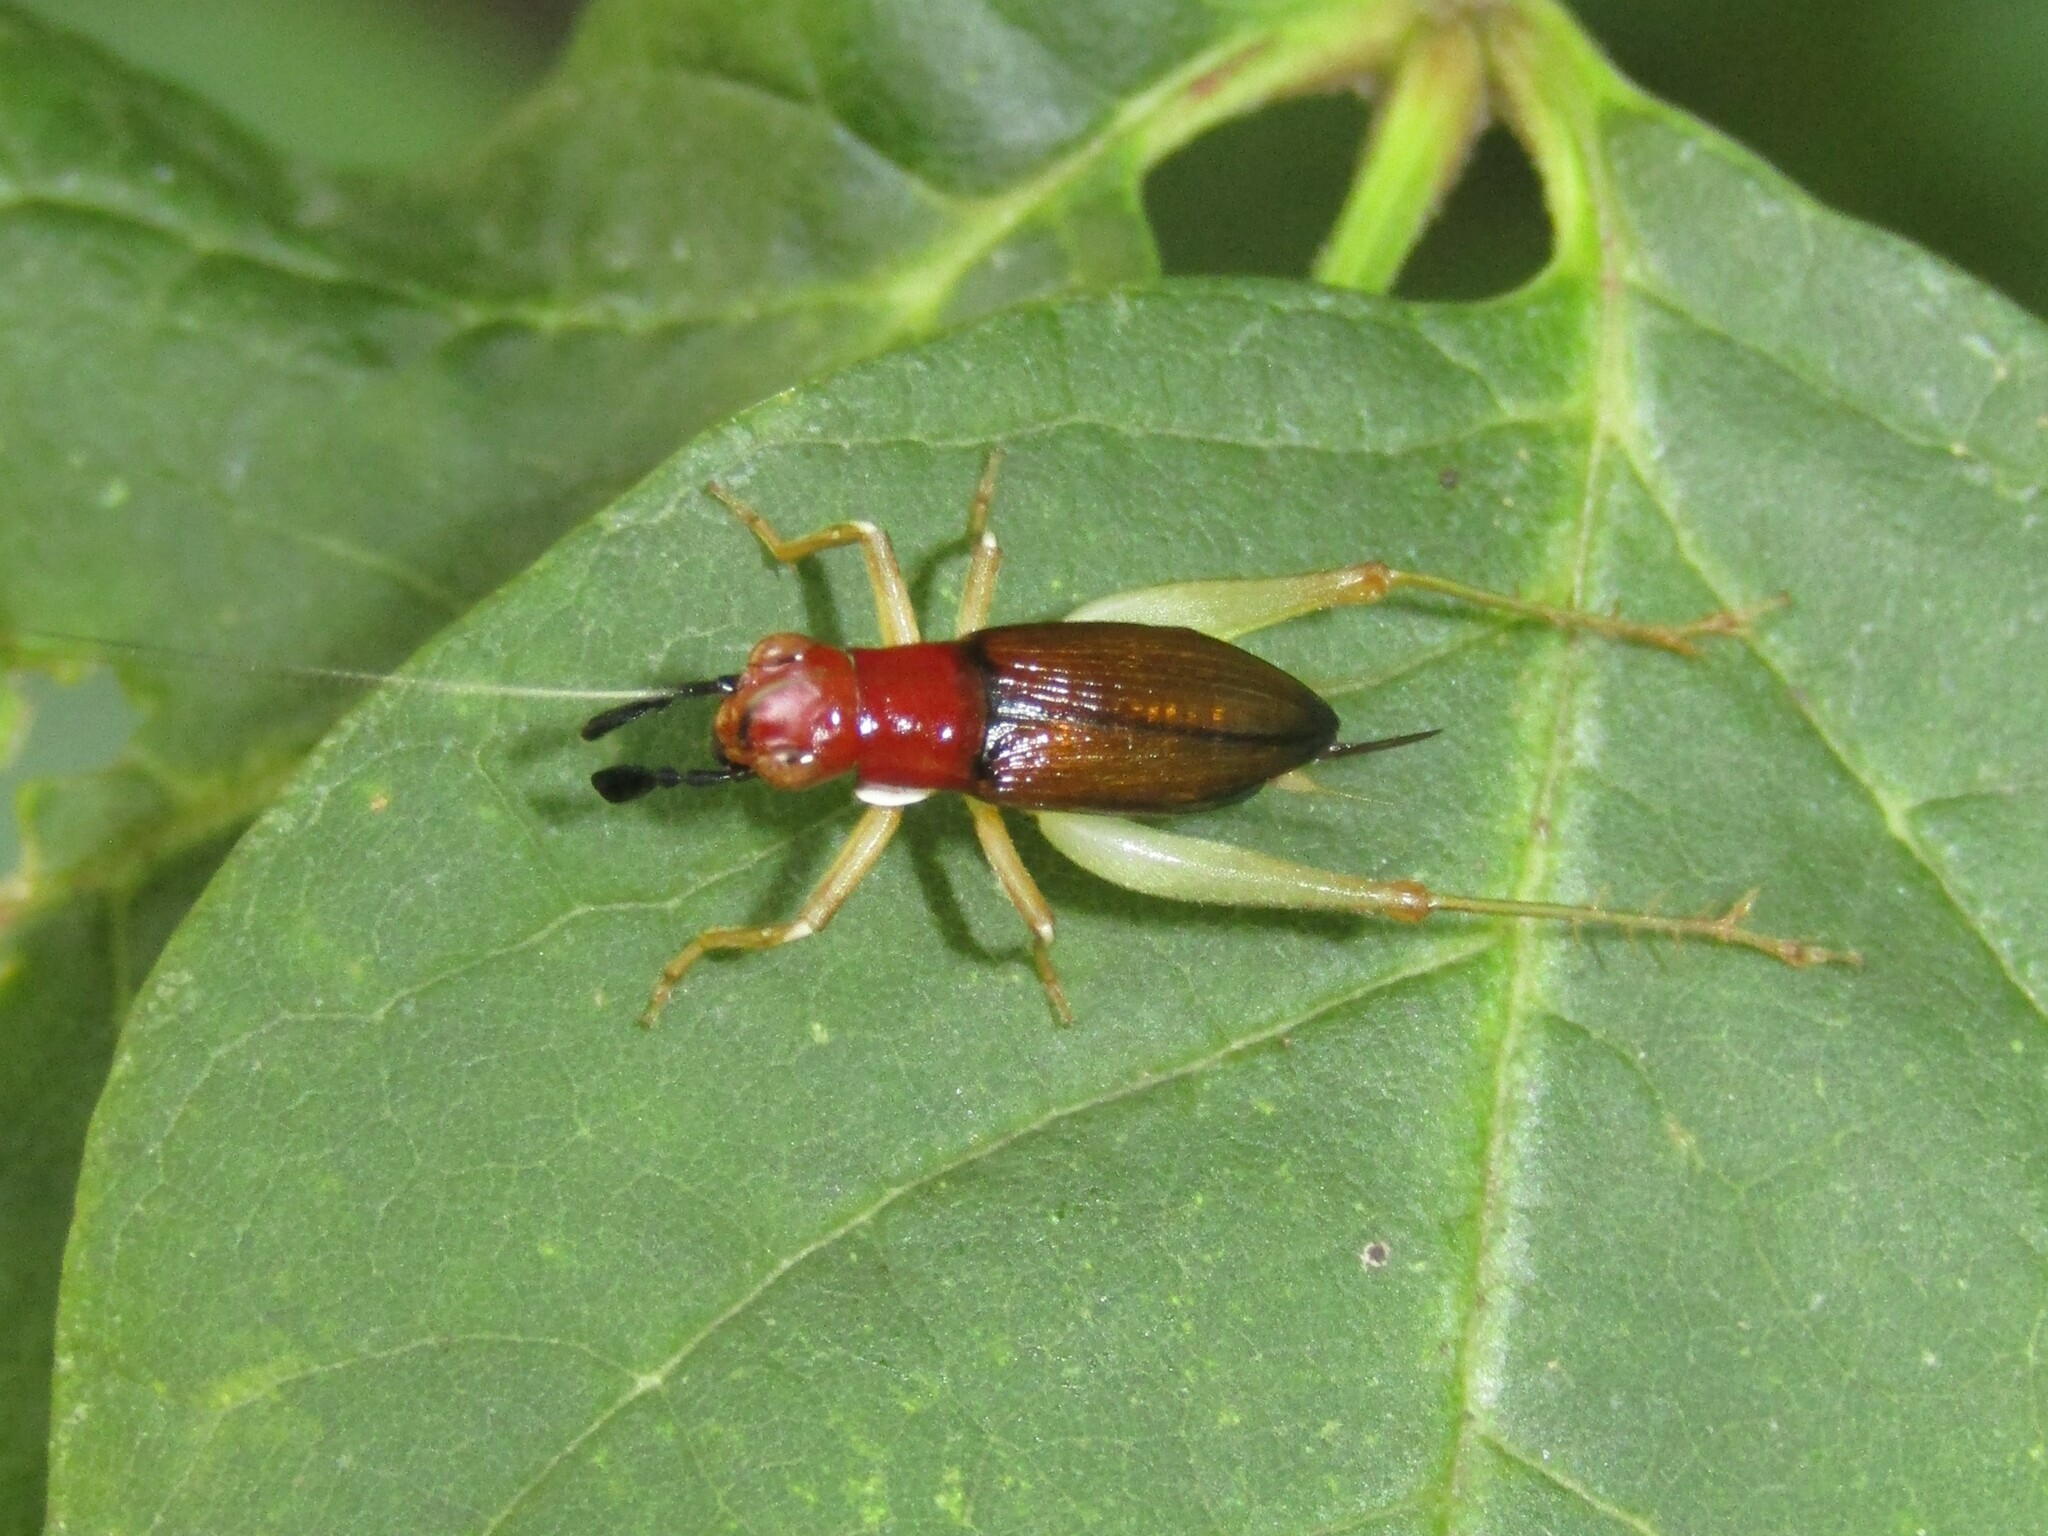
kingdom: Animalia
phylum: Arthropoda
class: Insecta
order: Orthoptera
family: Trigonidiidae
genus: Phyllopalpus
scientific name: Phyllopalpus pulchellus
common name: Handsome trig
